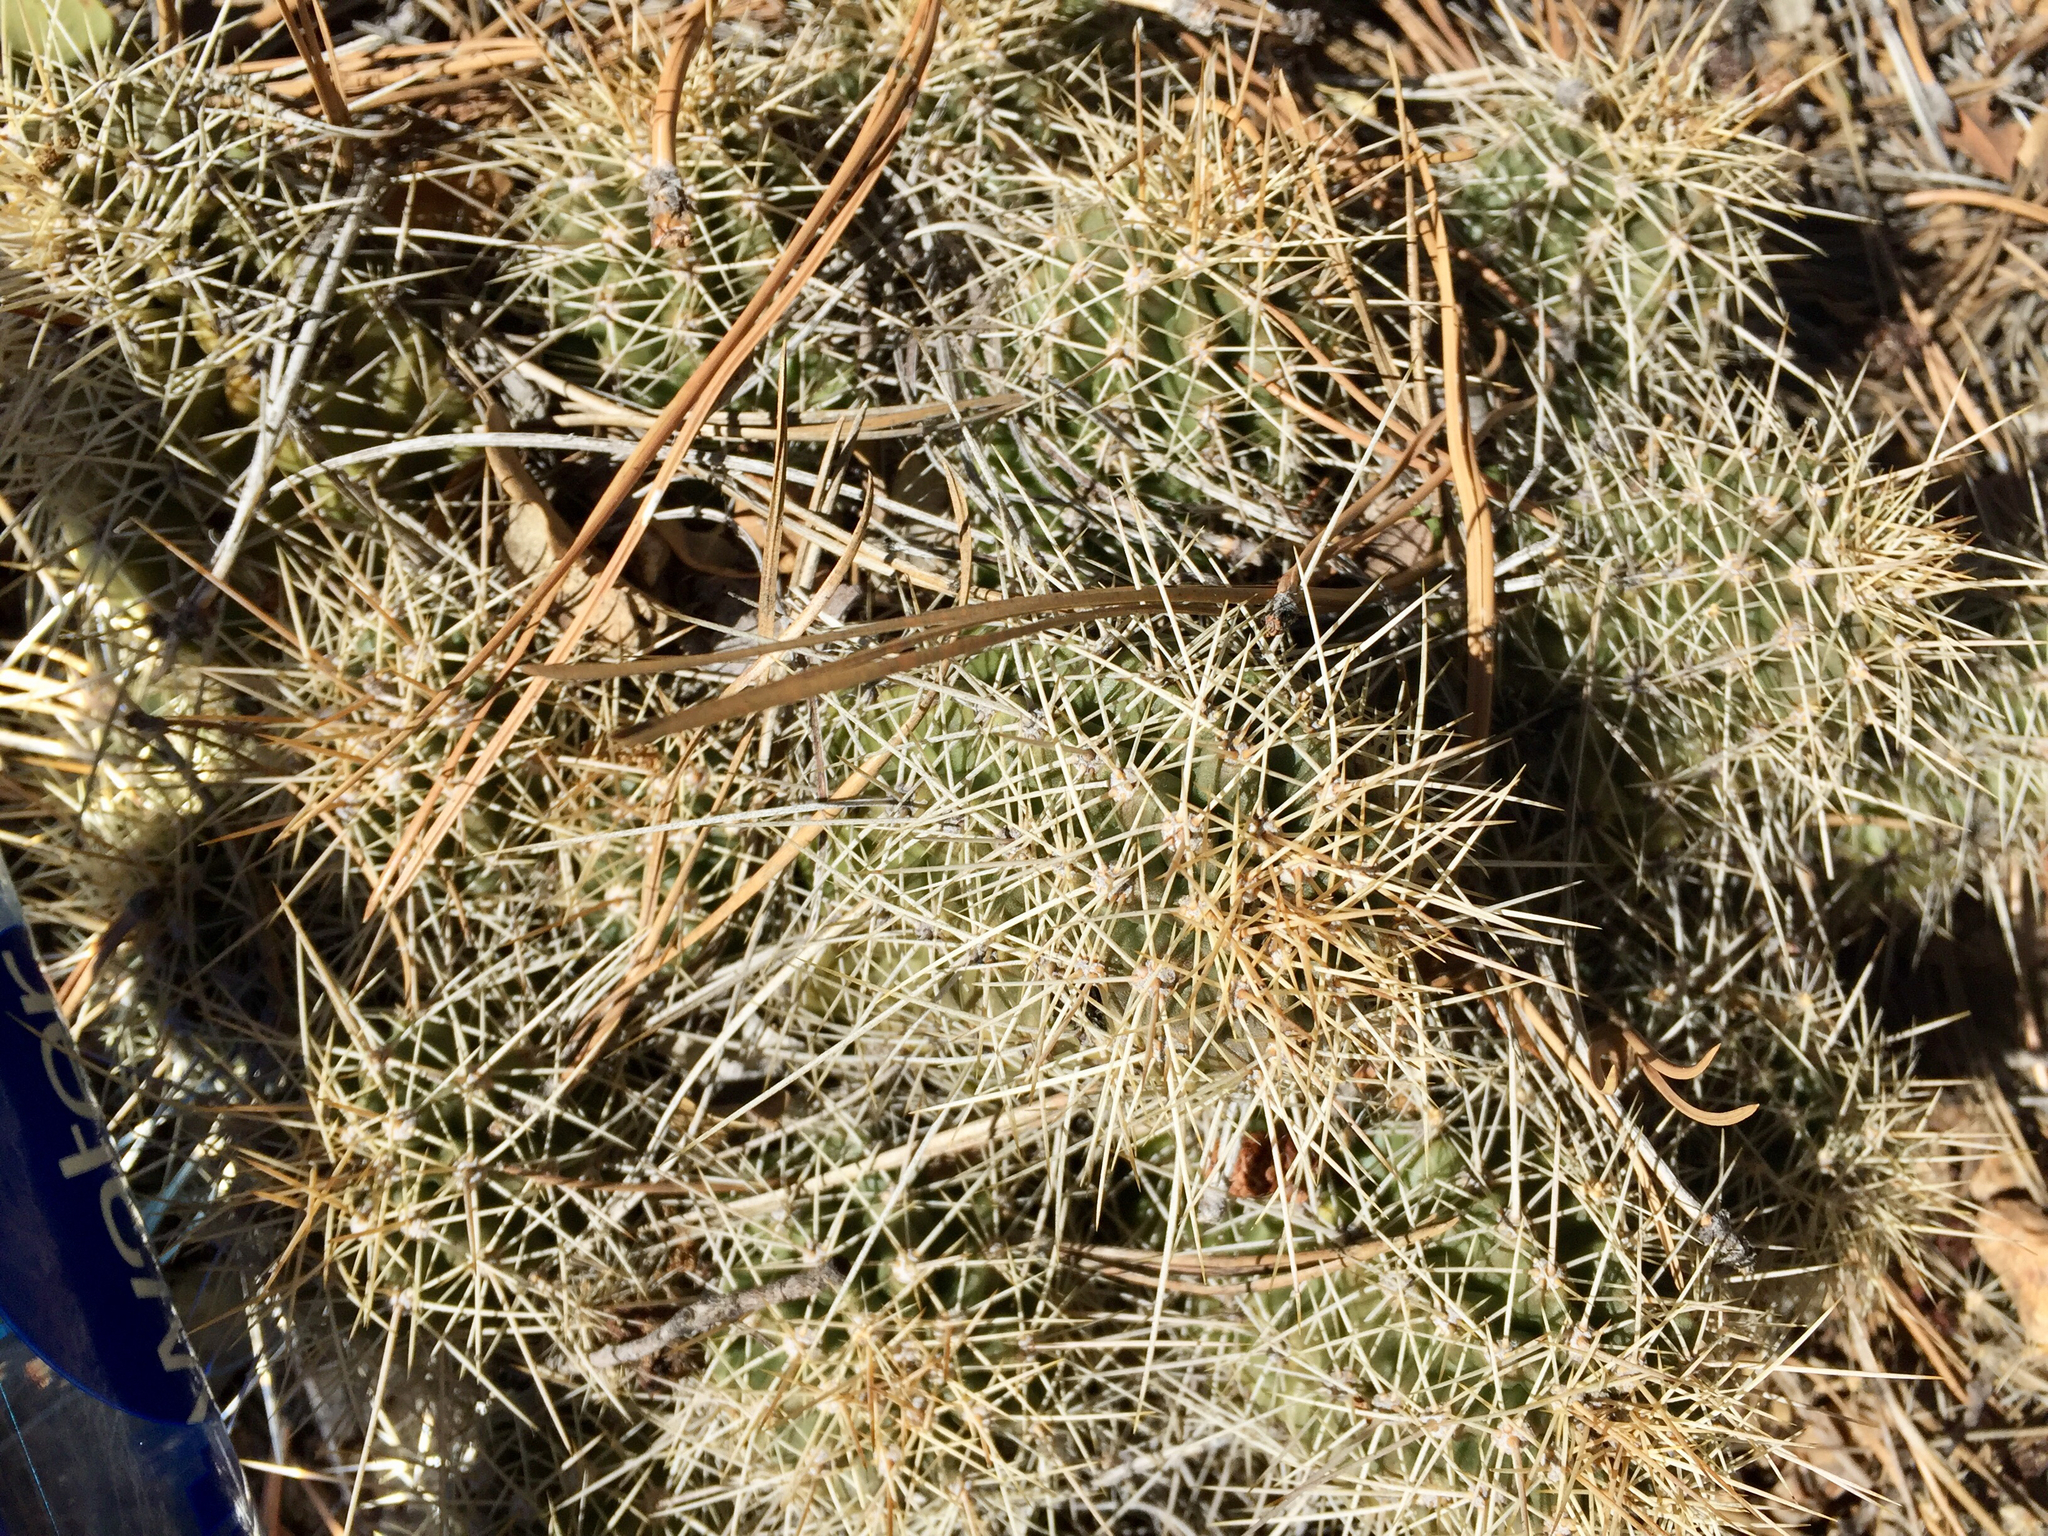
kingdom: Plantae
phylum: Tracheophyta
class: Magnoliopsida
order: Caryophyllales
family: Cactaceae
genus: Echinocereus
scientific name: Echinocereus bakeri
